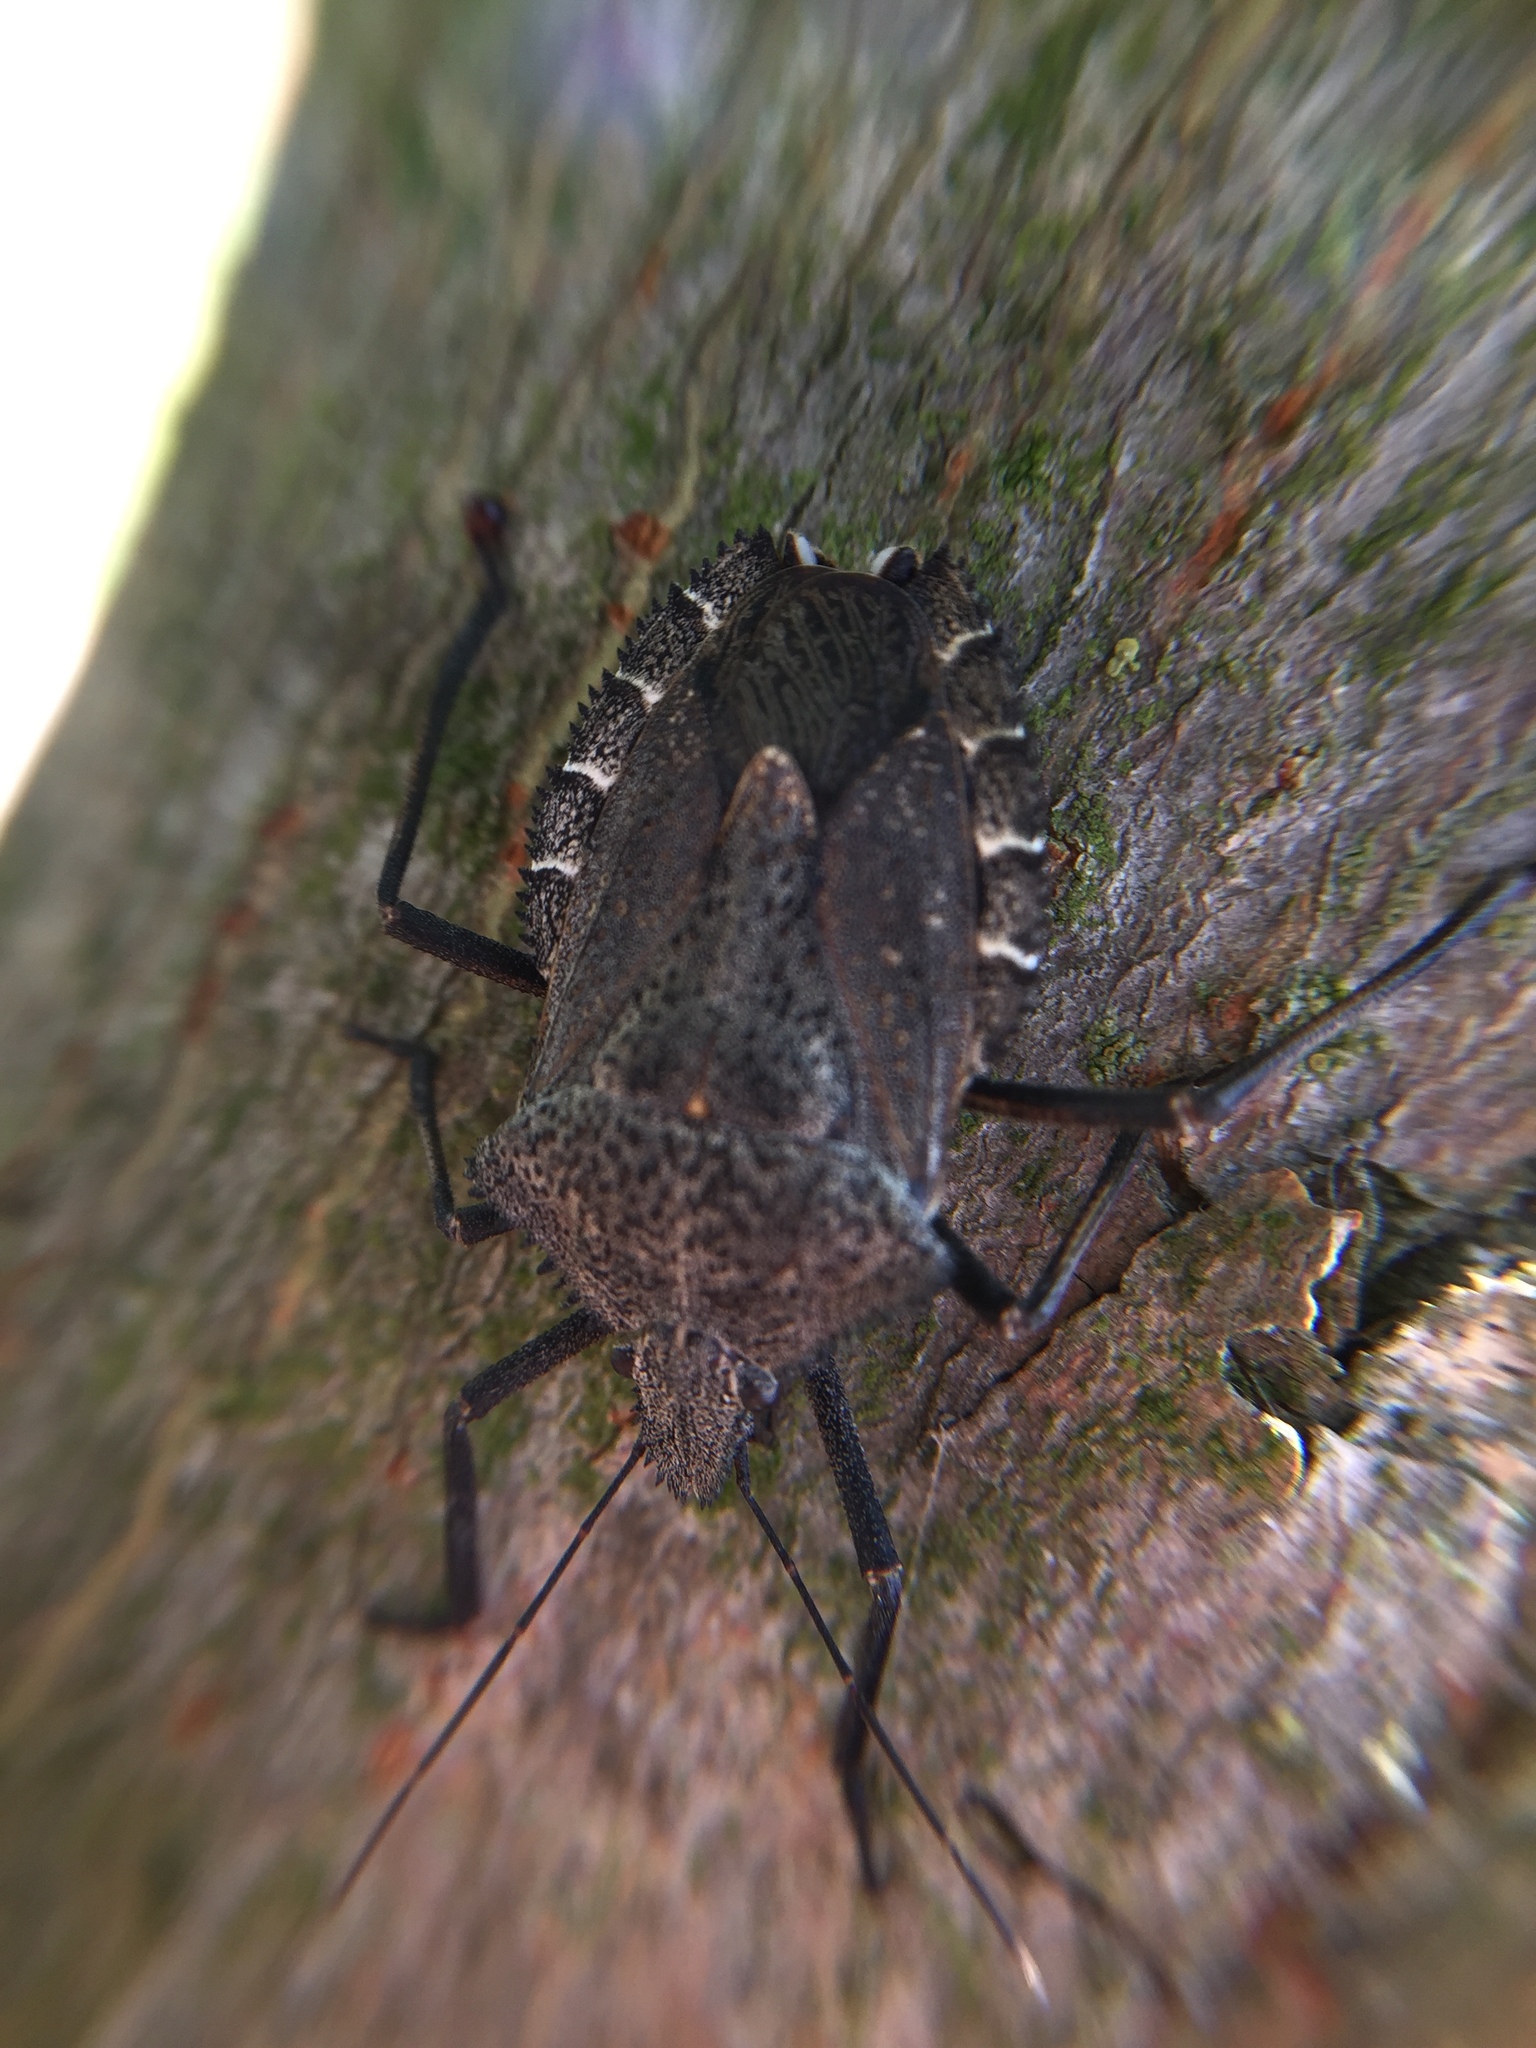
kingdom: Animalia
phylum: Arthropoda
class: Insecta
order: Hemiptera
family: Pentatomidae
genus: Mustha
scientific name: Mustha spinosula
